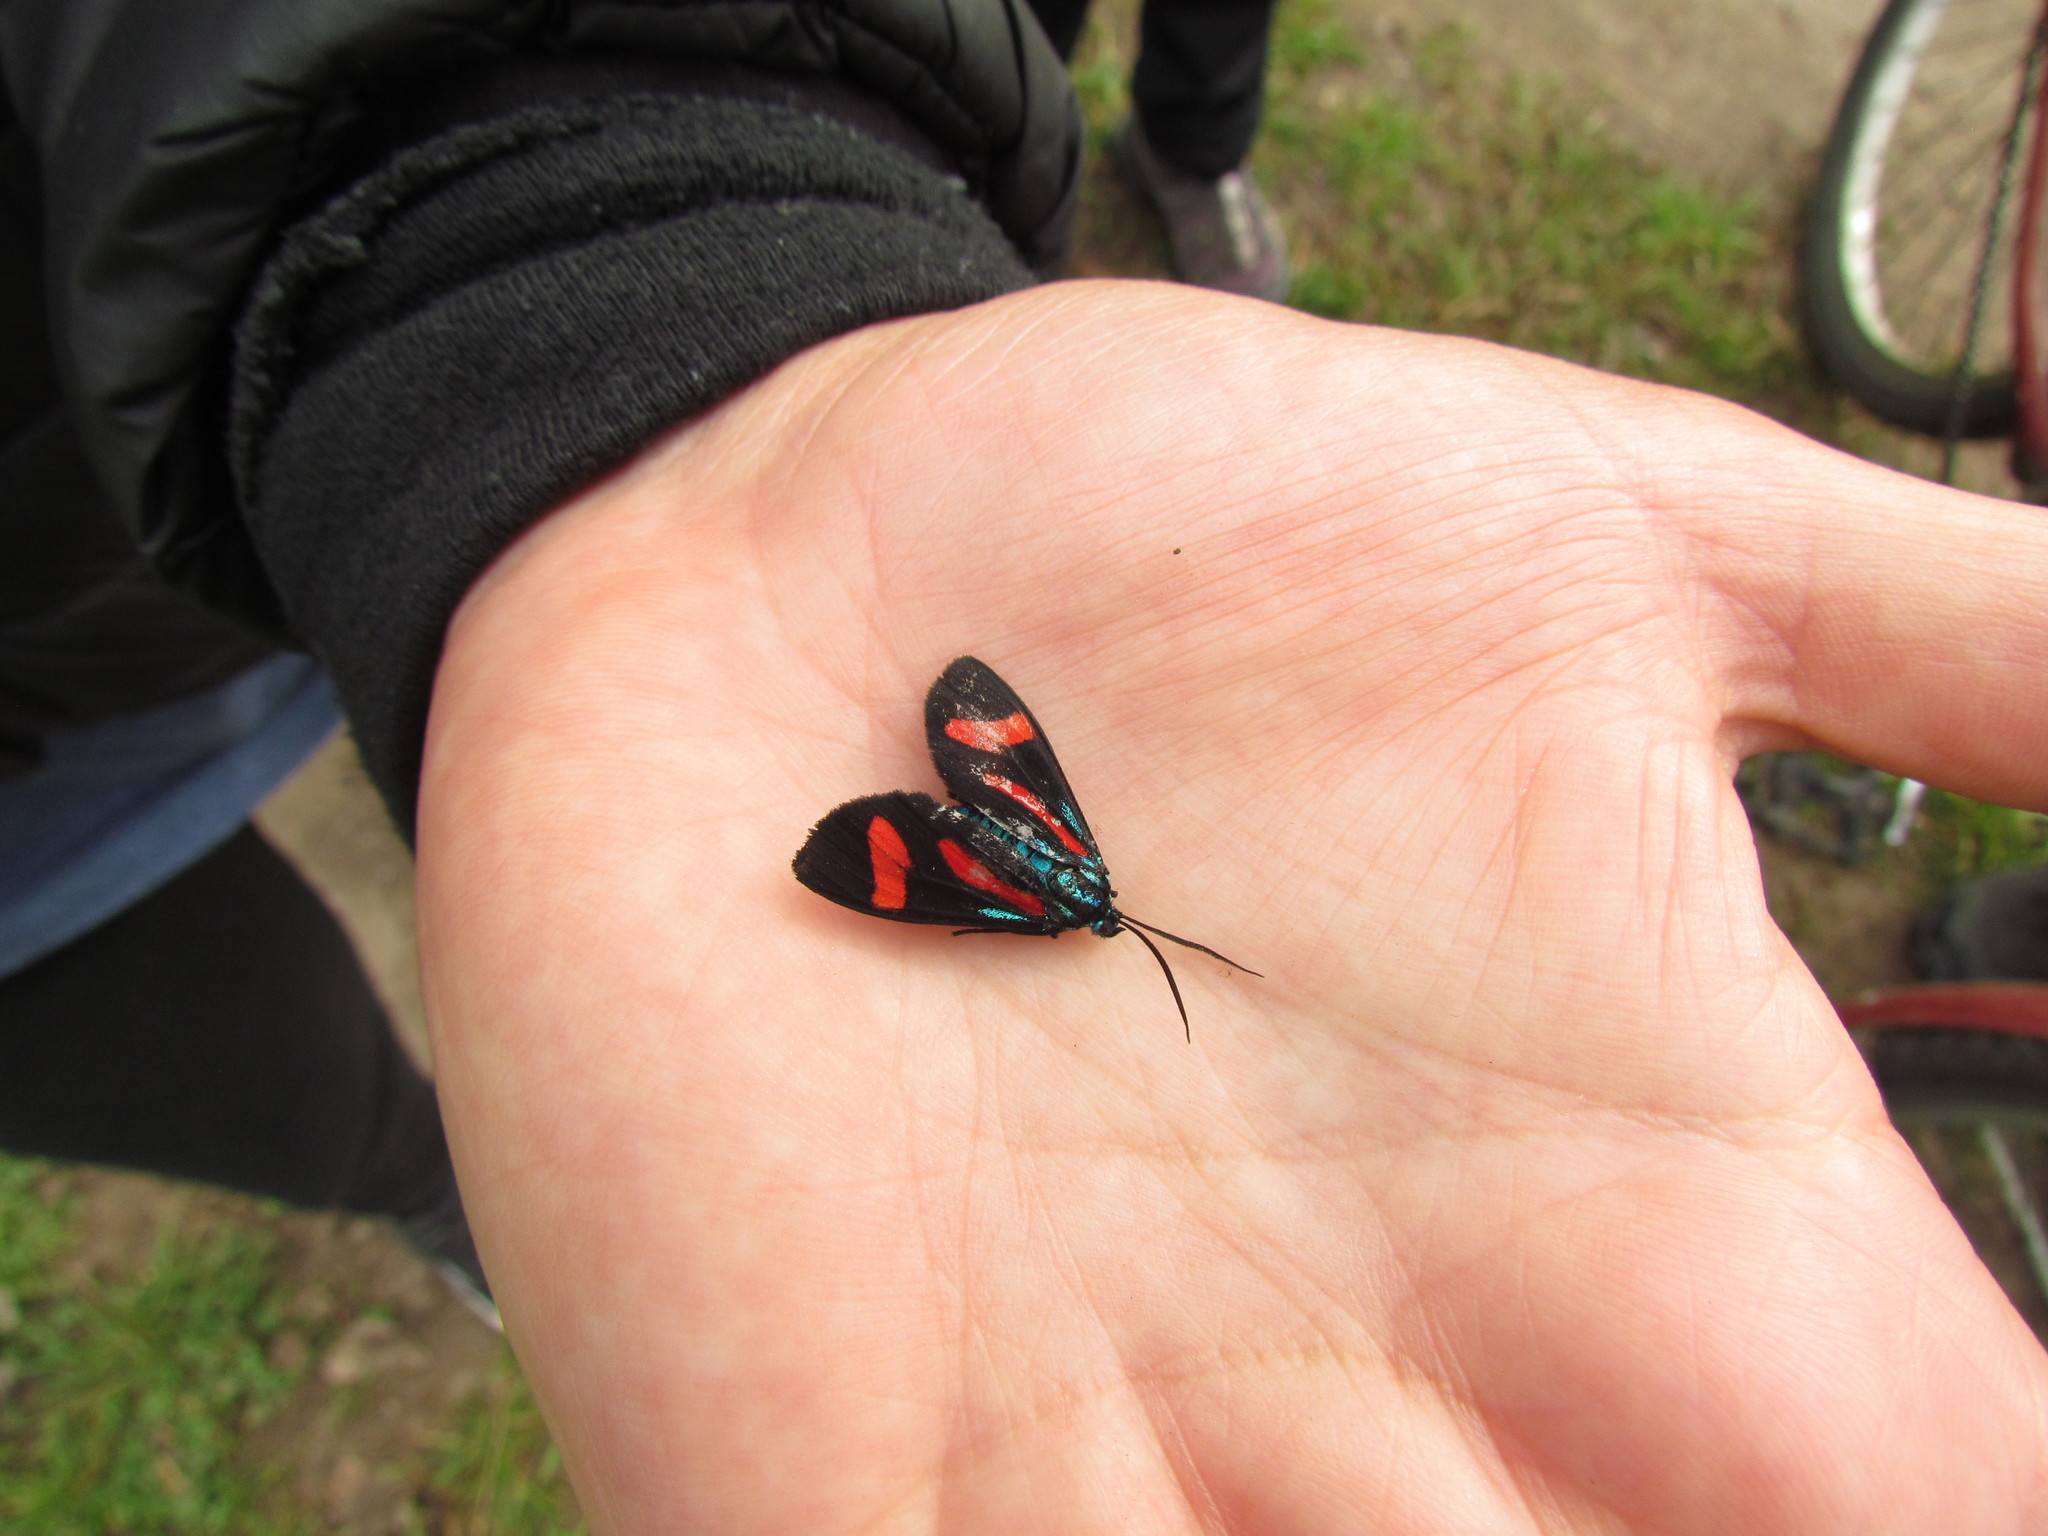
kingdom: Animalia
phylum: Arthropoda
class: Insecta
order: Lepidoptera
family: Erebidae
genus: Cyanopepla
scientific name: Cyanopepla jucunda
